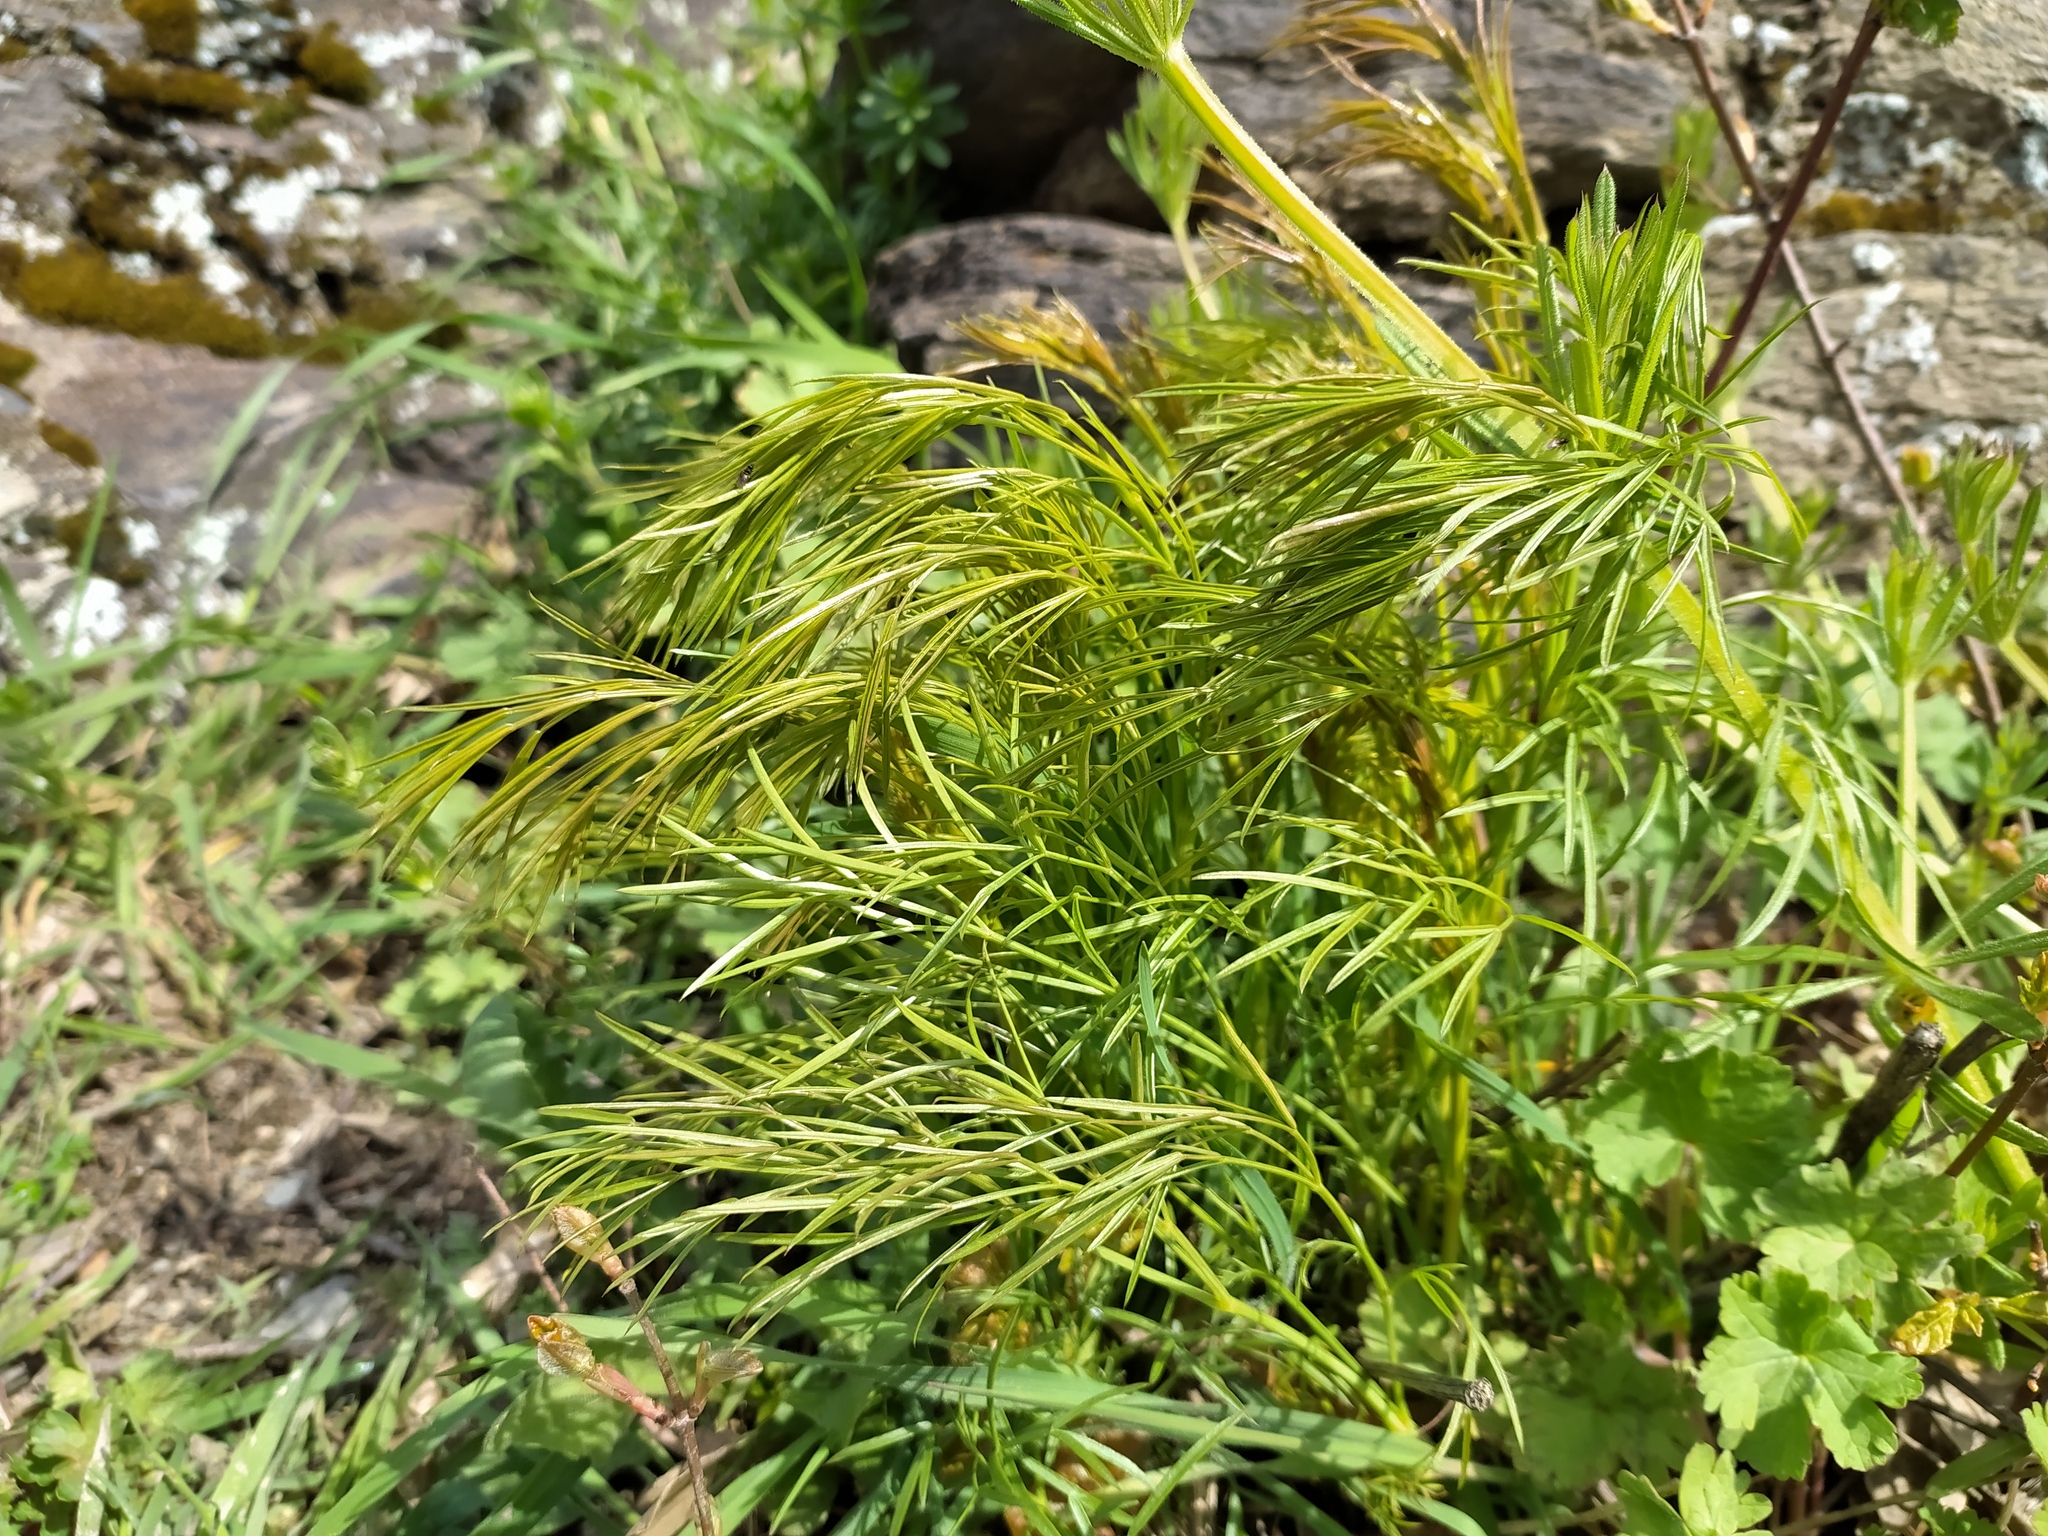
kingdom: Plantae
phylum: Tracheophyta
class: Magnoliopsida
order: Apiales
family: Apiaceae
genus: Peucedanum
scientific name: Peucedanum officinale
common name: Sulphurweed
